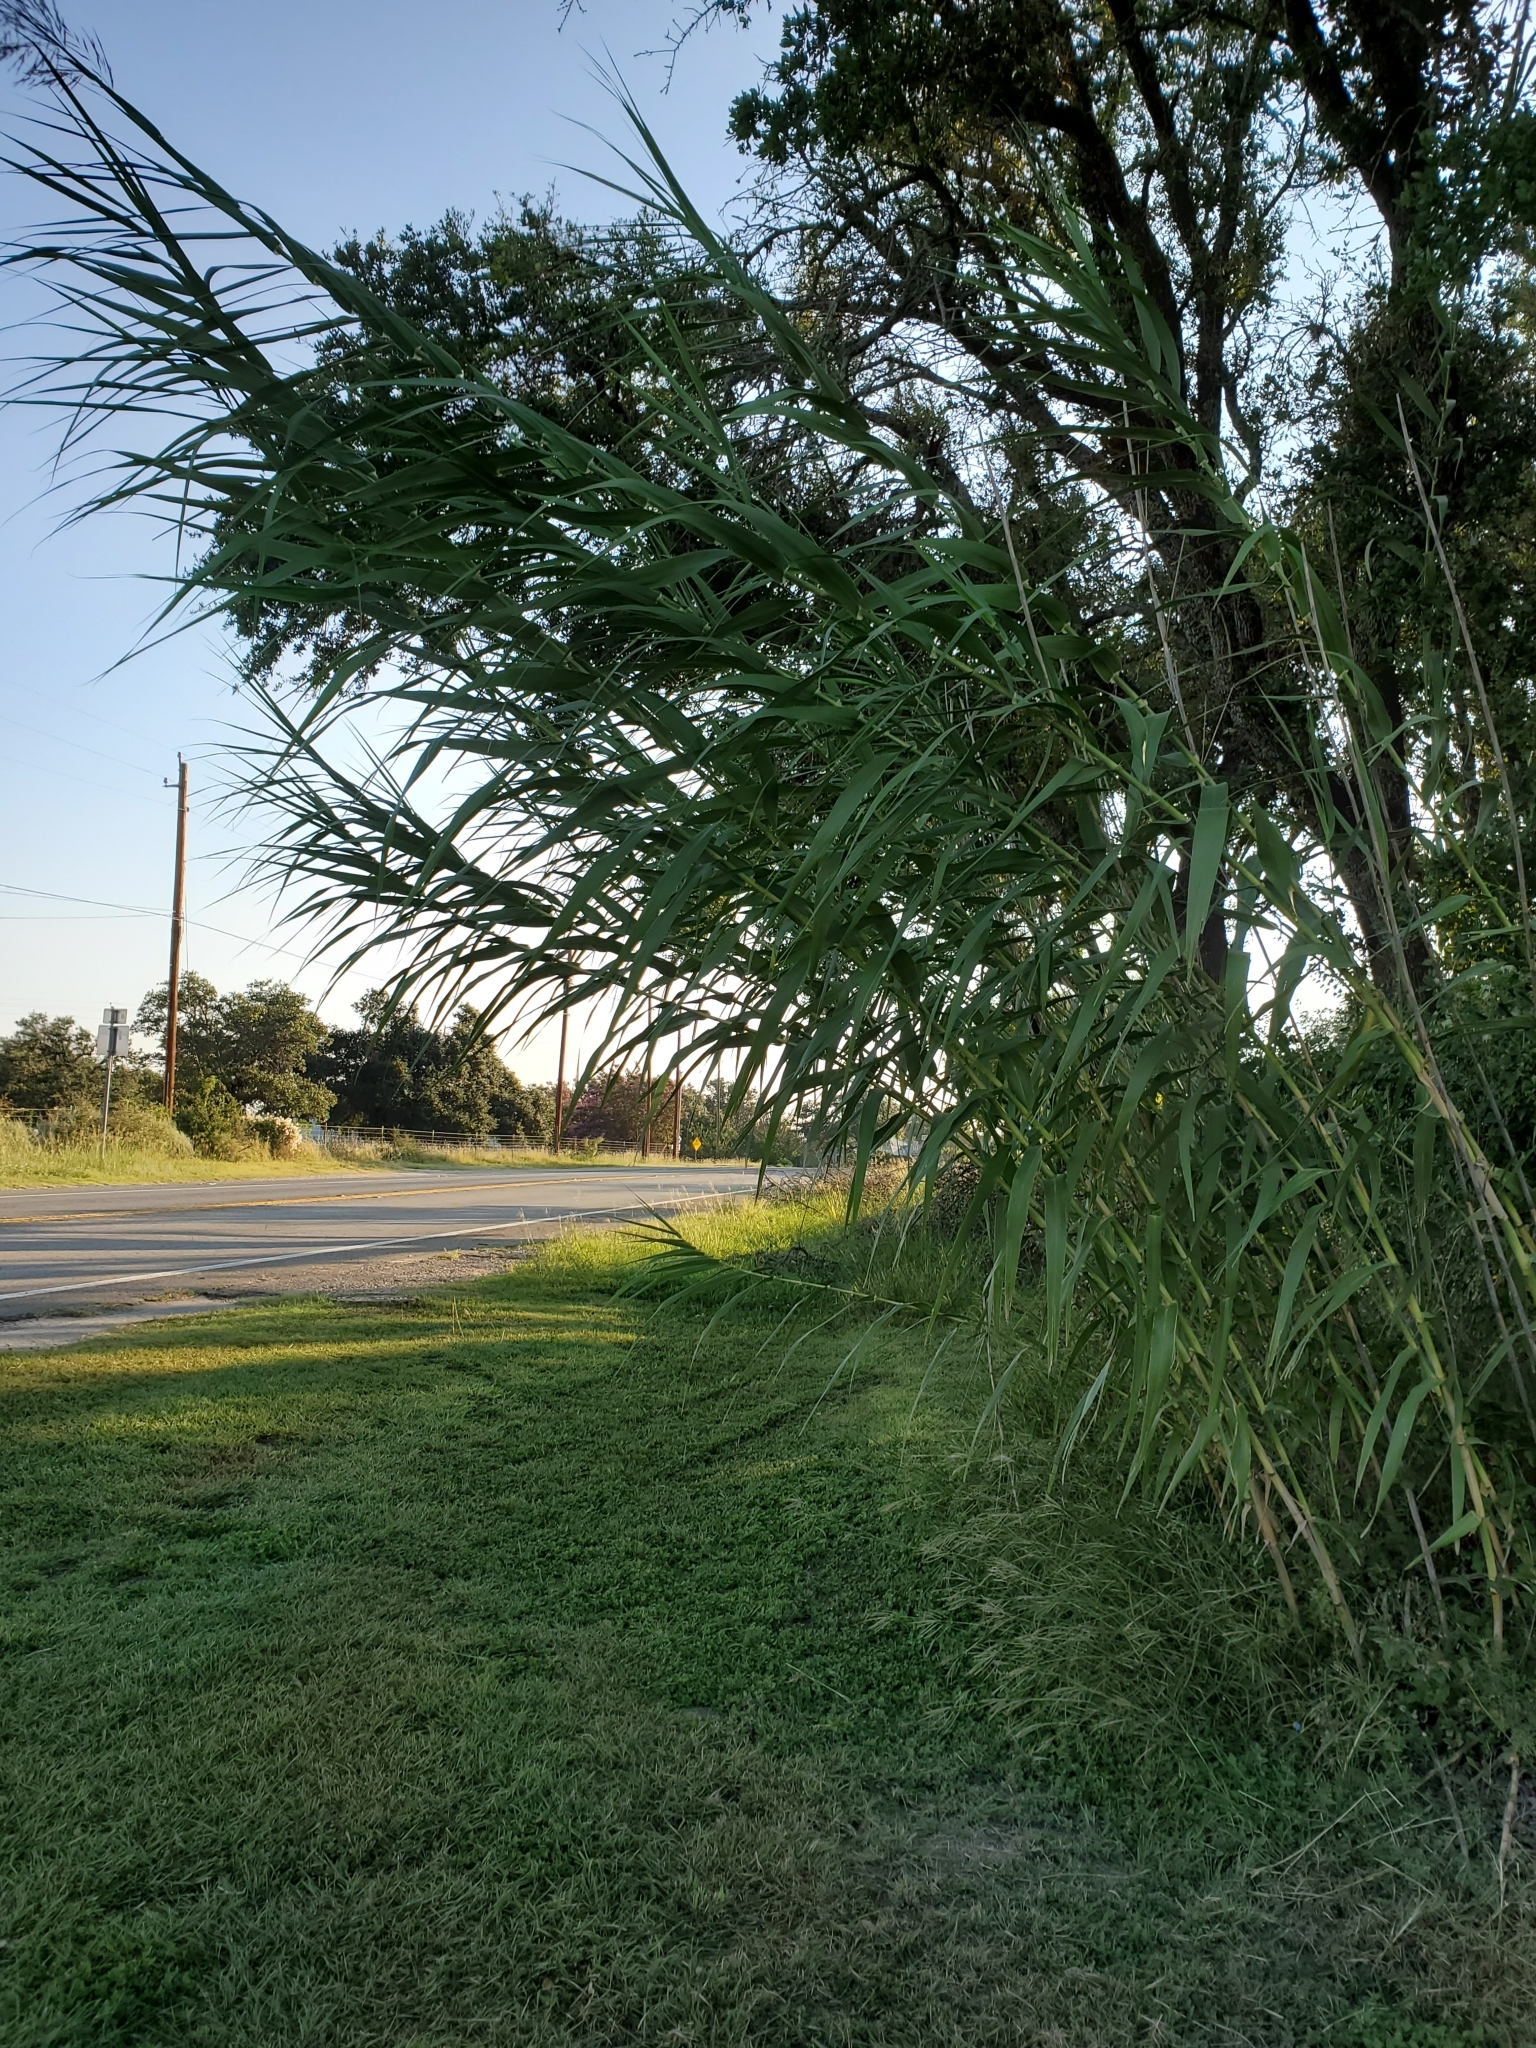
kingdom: Plantae
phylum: Tracheophyta
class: Liliopsida
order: Poales
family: Poaceae
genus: Arundo
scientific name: Arundo donax
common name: Giant reed
